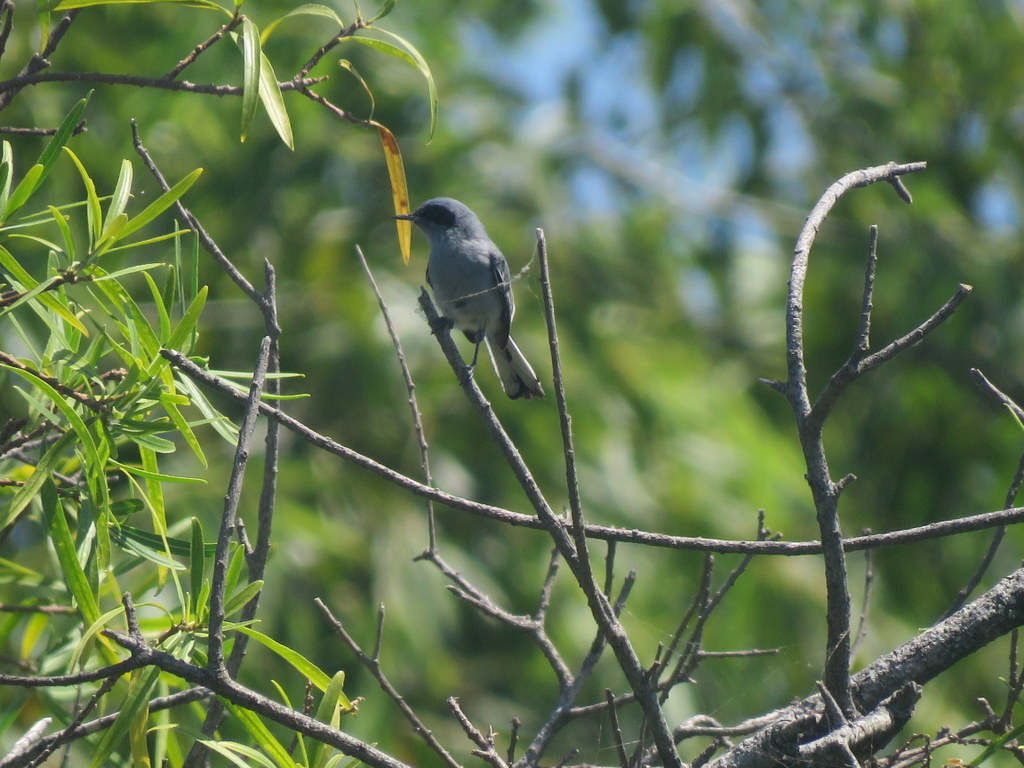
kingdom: Animalia
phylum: Chordata
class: Aves
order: Passeriformes
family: Polioptilidae
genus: Polioptila
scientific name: Polioptila dumicola
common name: Masked gnatcatcher
